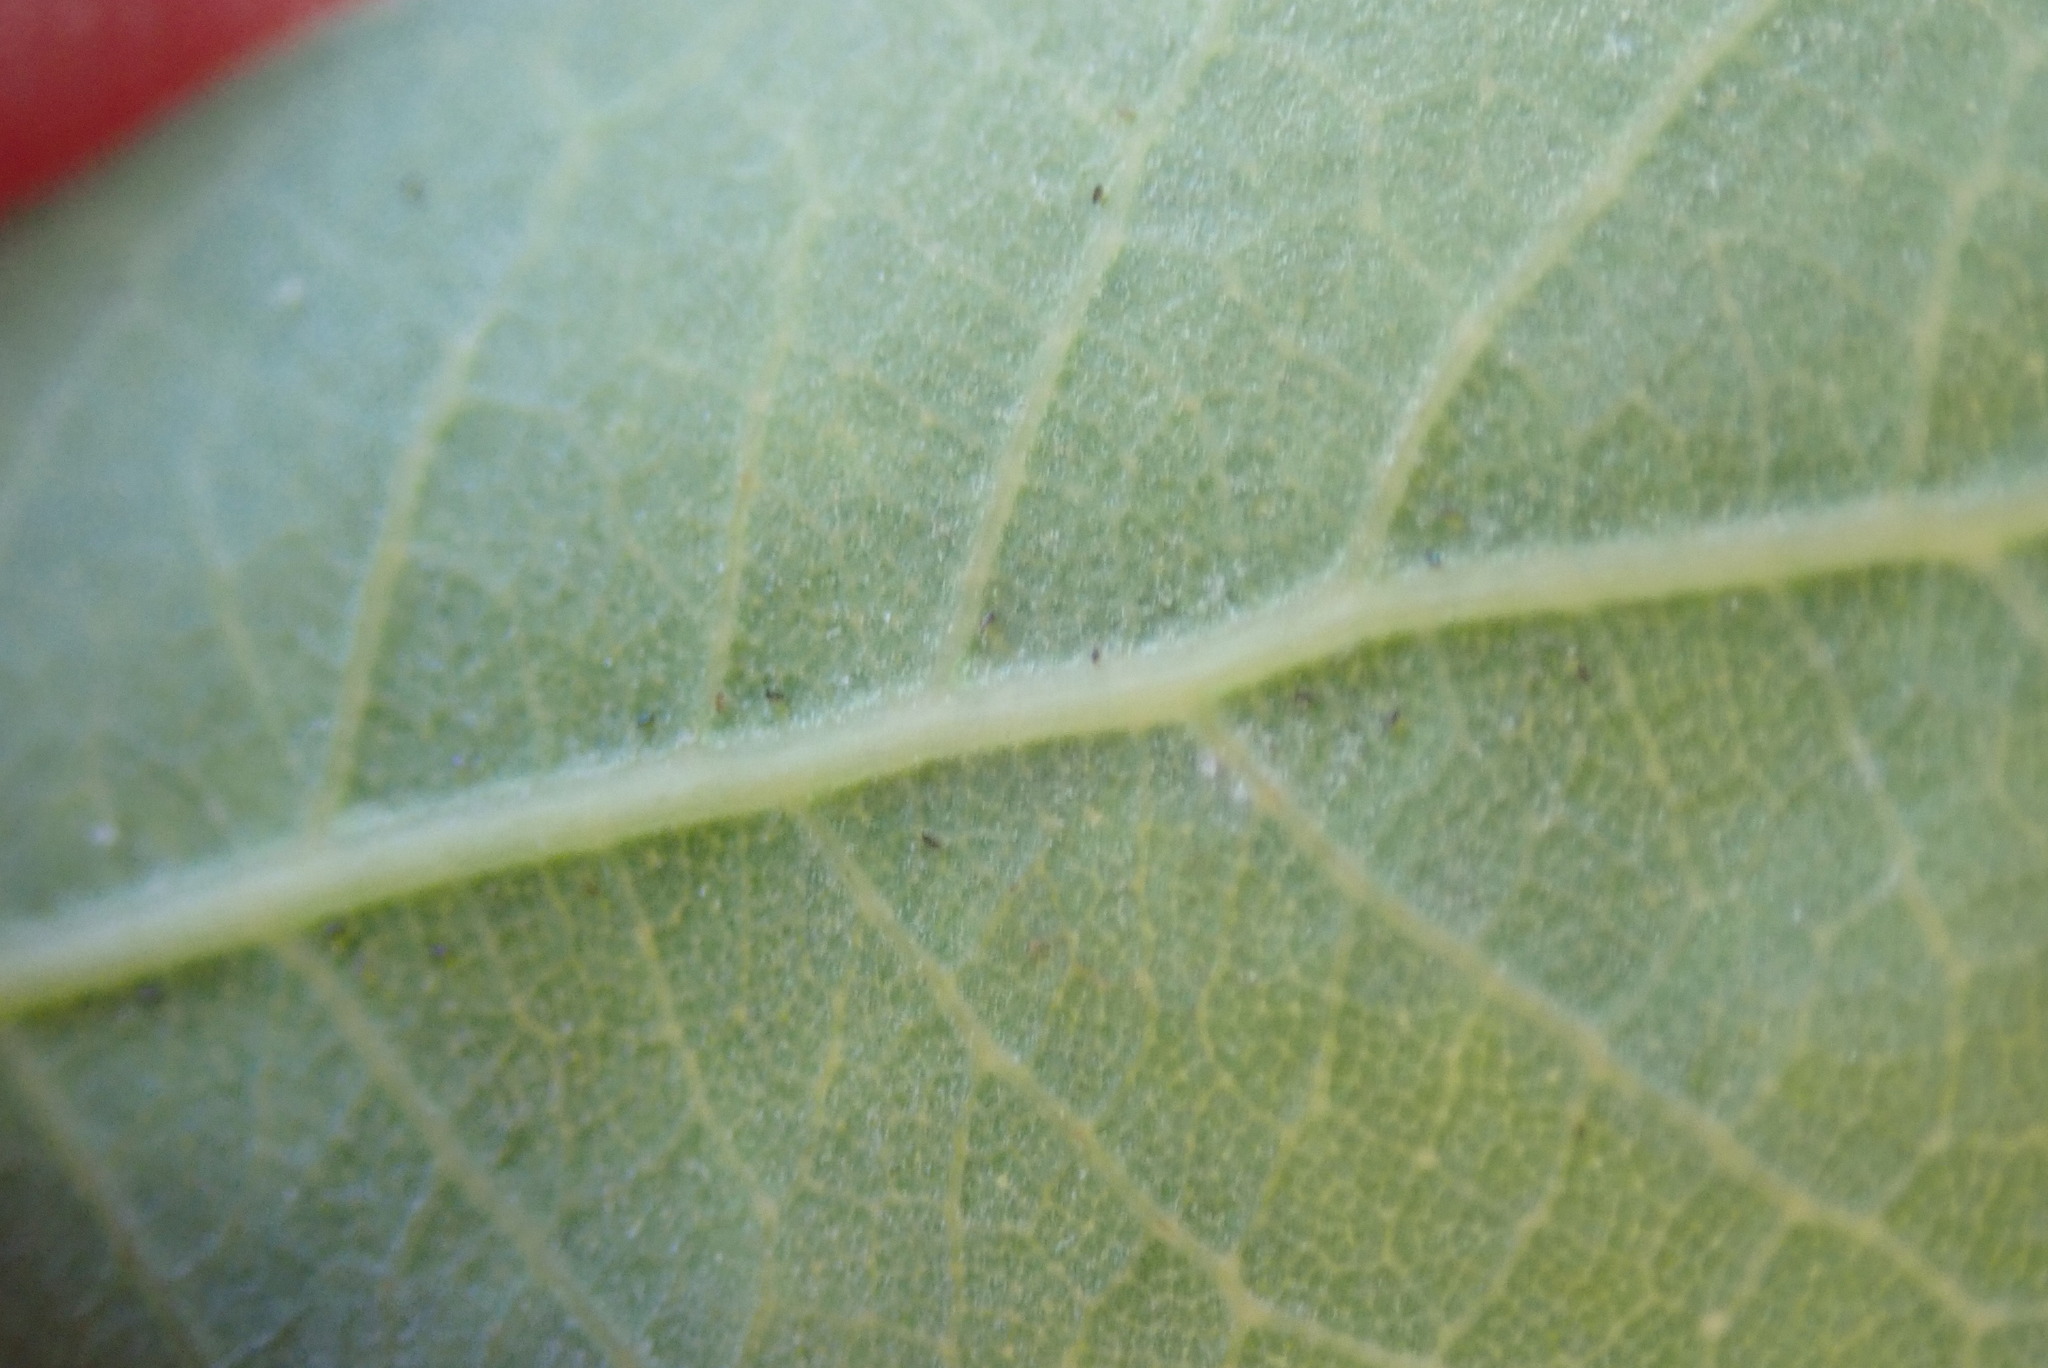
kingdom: Plantae
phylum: Tracheophyta
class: Magnoliopsida
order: Fagales
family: Fagaceae
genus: Quercus
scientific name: Quercus engelmannii
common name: Engelmann oak
